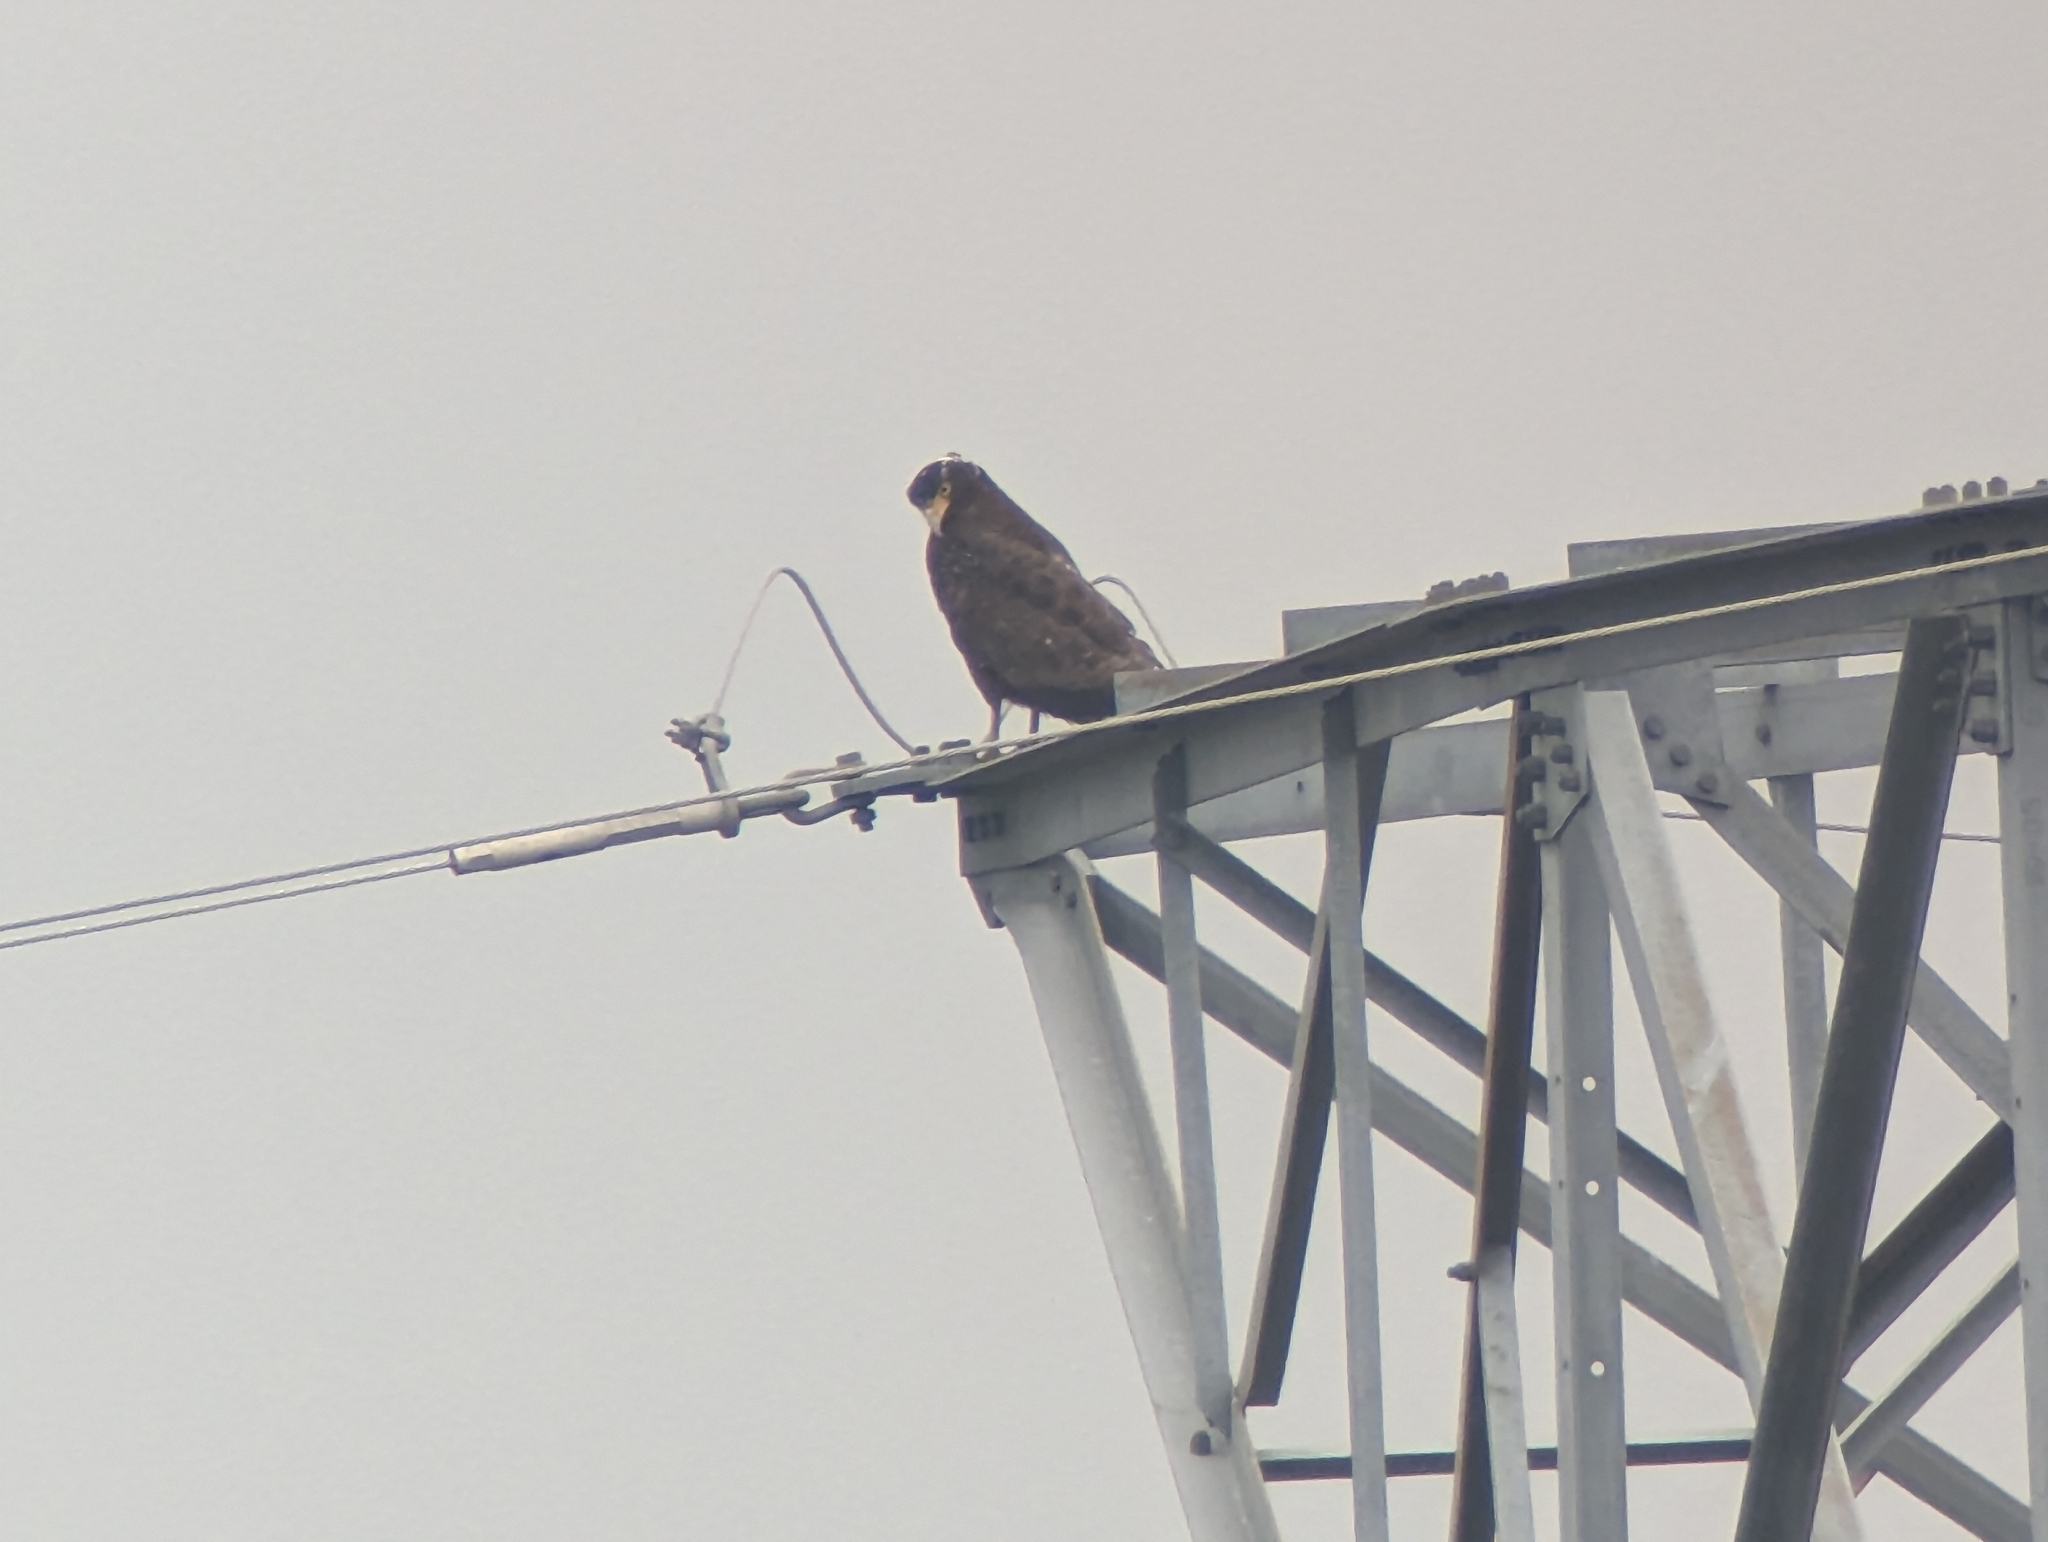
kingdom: Animalia
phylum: Chordata
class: Aves
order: Accipitriformes
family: Accipitridae
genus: Spilornis
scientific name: Spilornis cheela
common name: Crested serpent eagle
